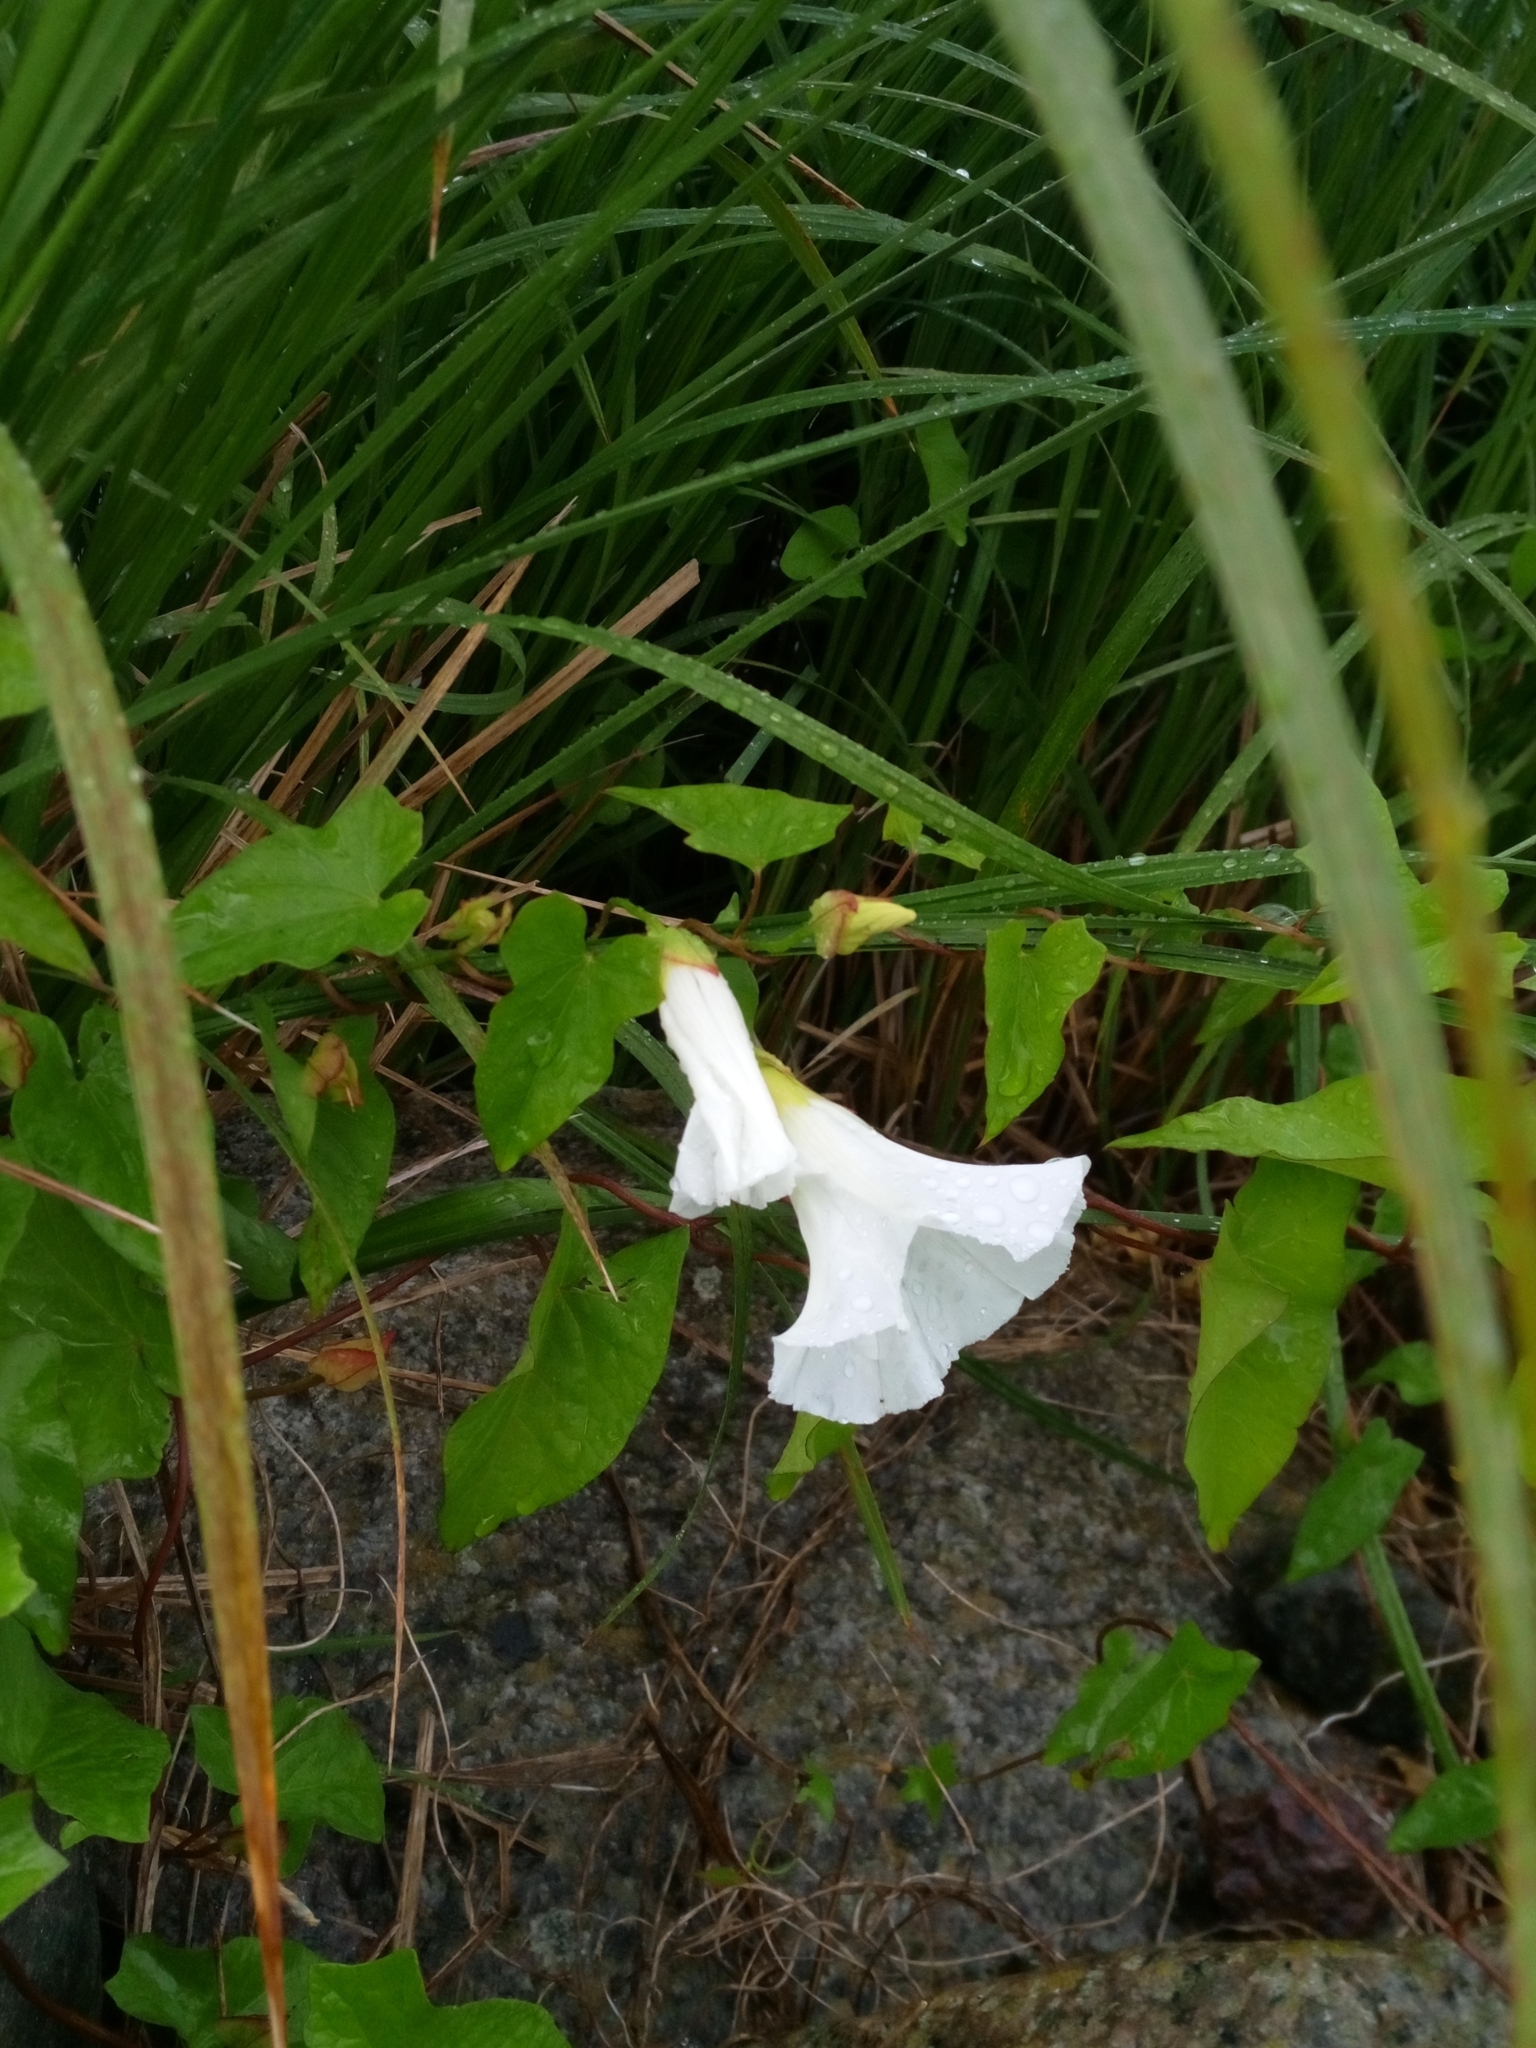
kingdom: Plantae
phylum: Tracheophyta
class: Magnoliopsida
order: Solanales
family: Convolvulaceae
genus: Calystegia
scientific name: Calystegia sepium
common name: Hedge bindweed
